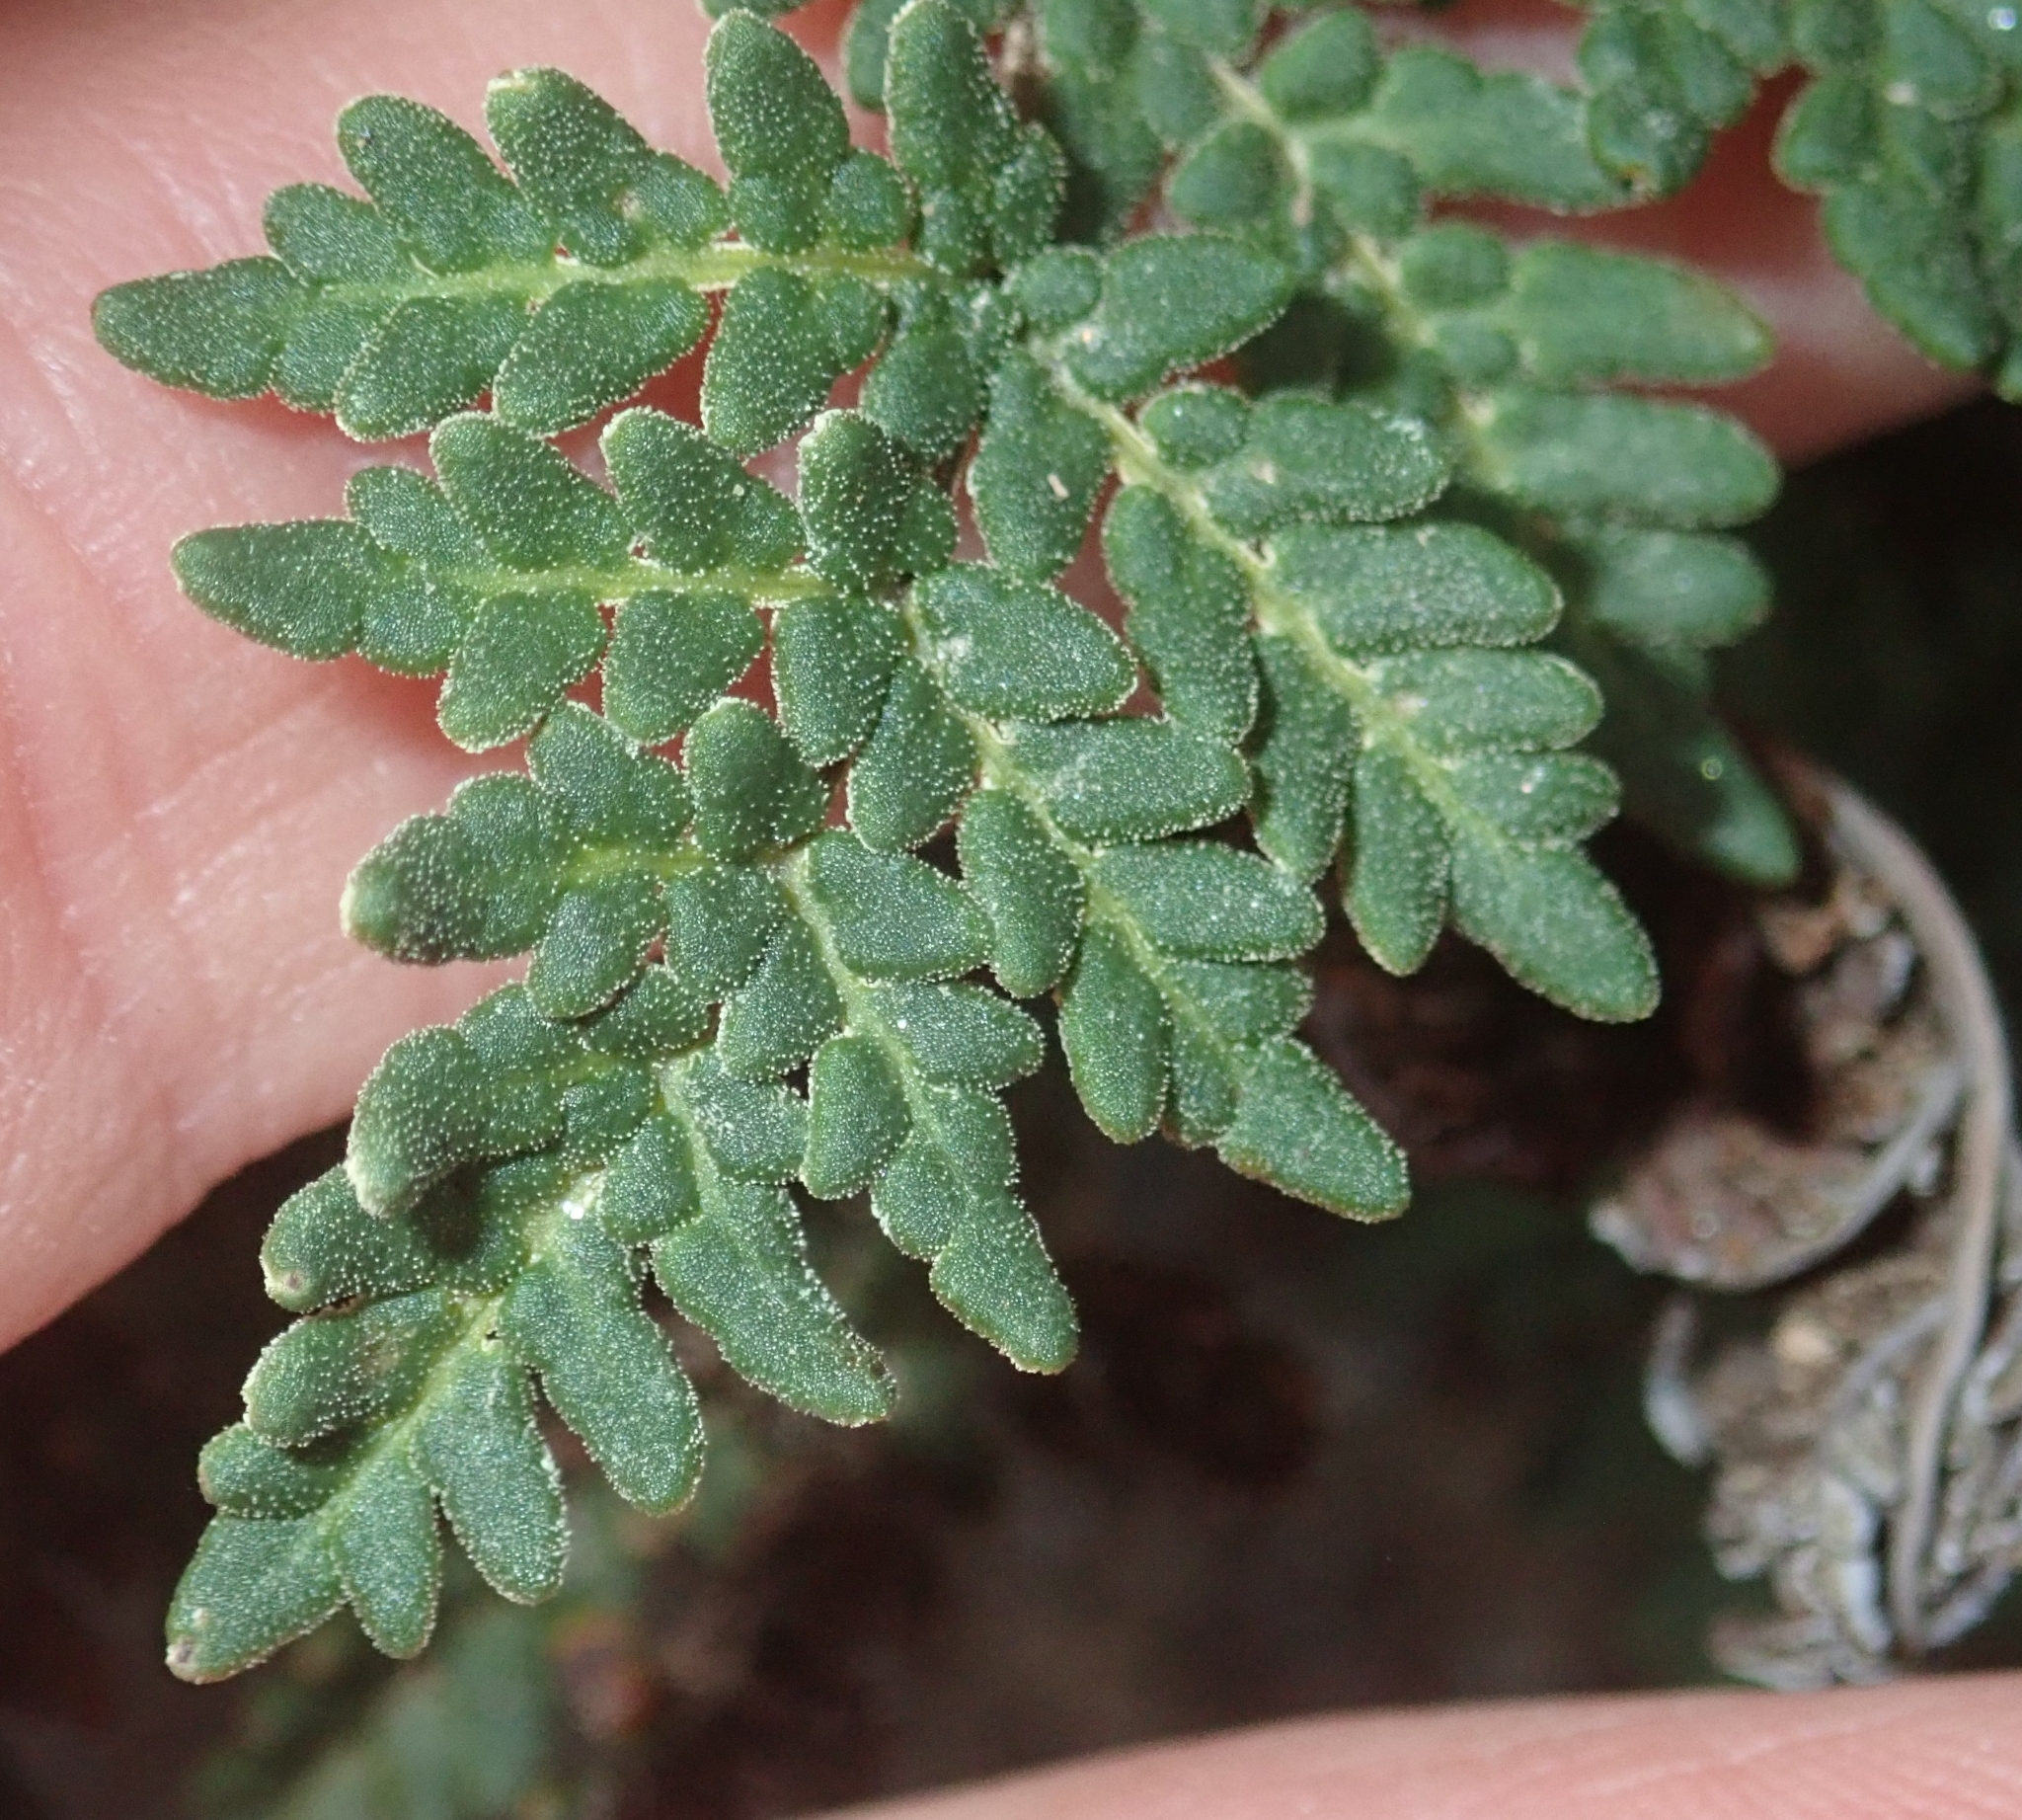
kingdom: Plantae
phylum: Tracheophyta
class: Polypodiopsida
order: Polypodiales
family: Pteridaceae
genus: Notholaena
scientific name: Notholaena californica
